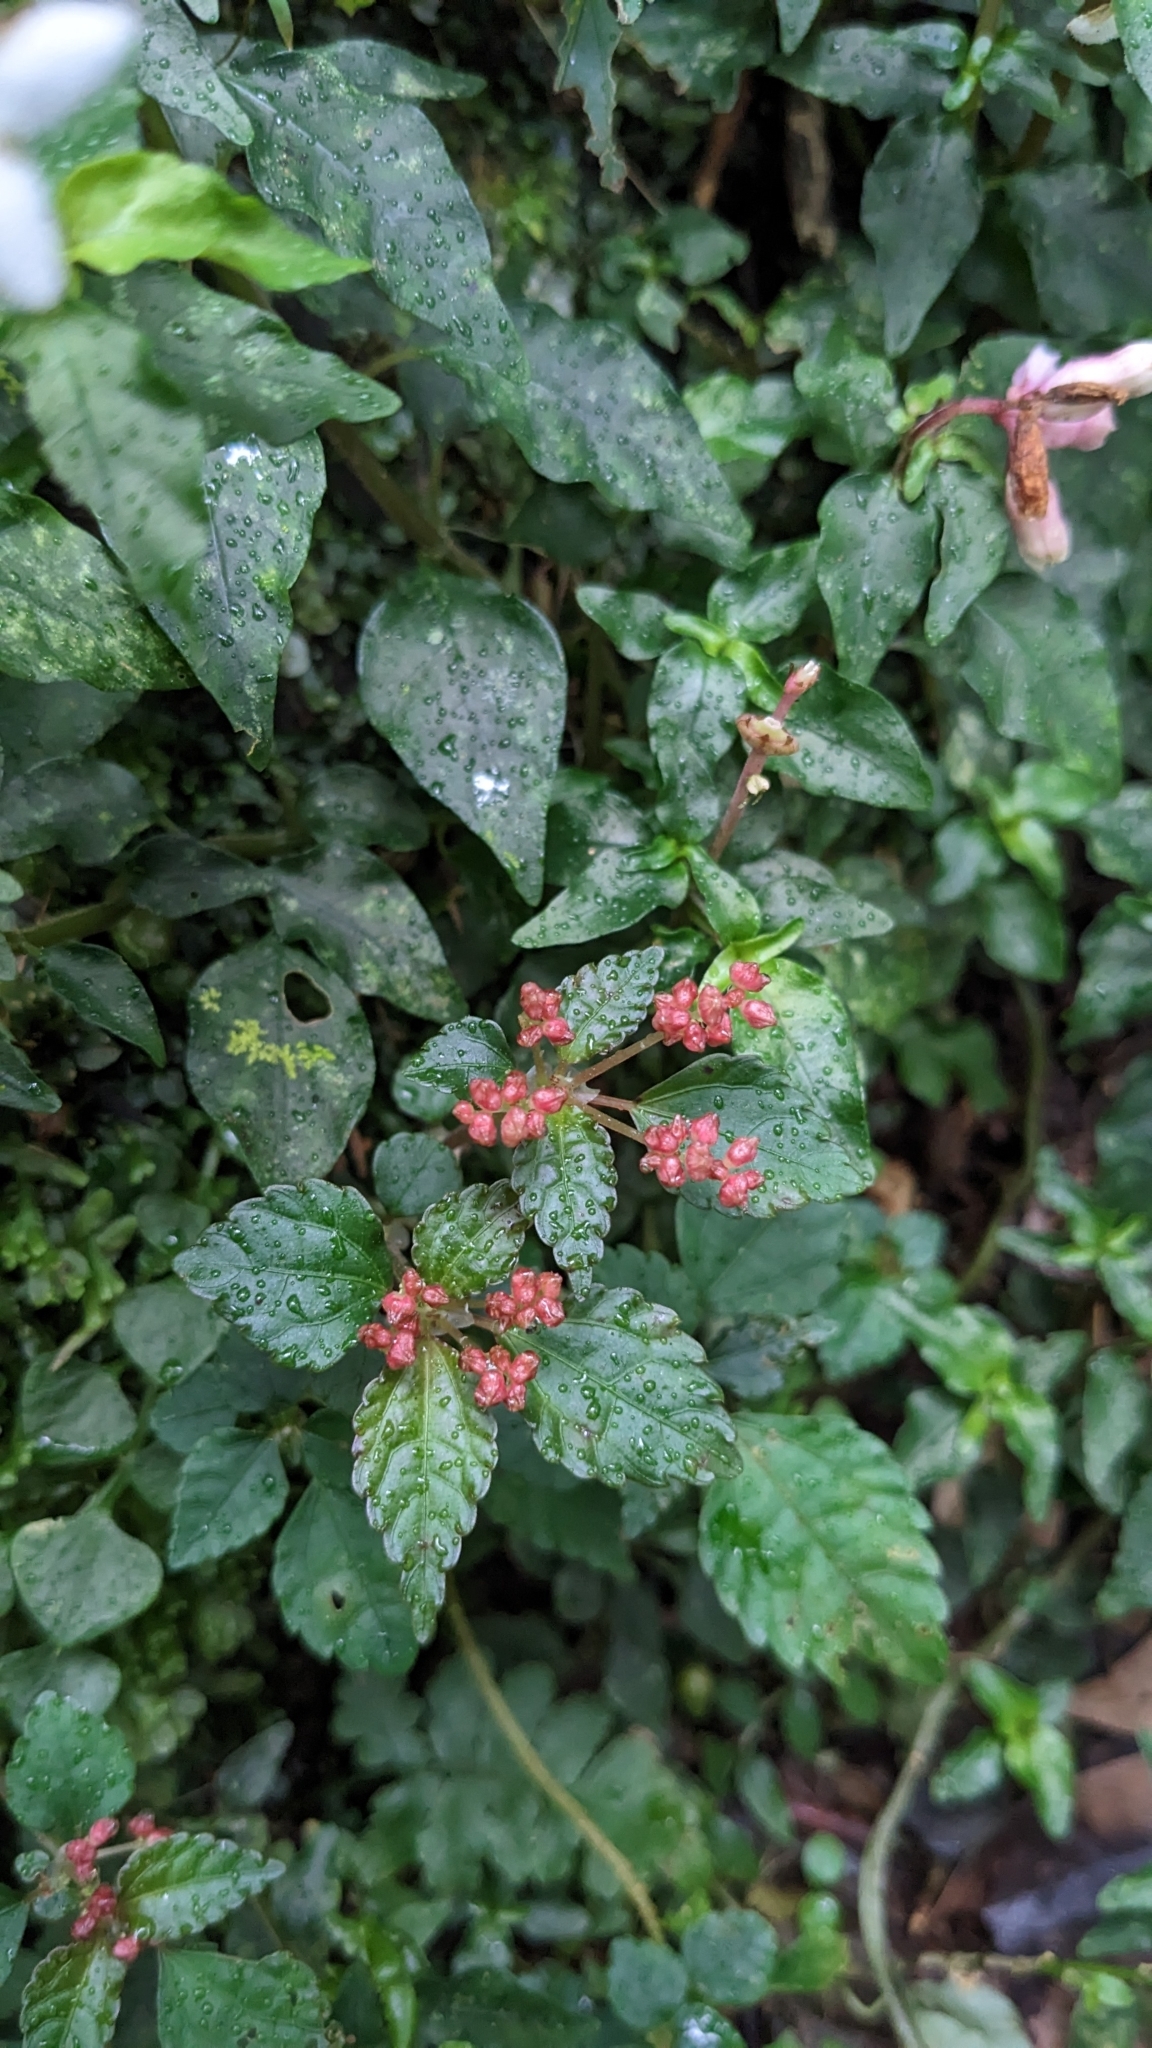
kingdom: Plantae
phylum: Tracheophyta
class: Magnoliopsida
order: Rosales
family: Urticaceae
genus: Pilea
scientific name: Pilea aquarum
